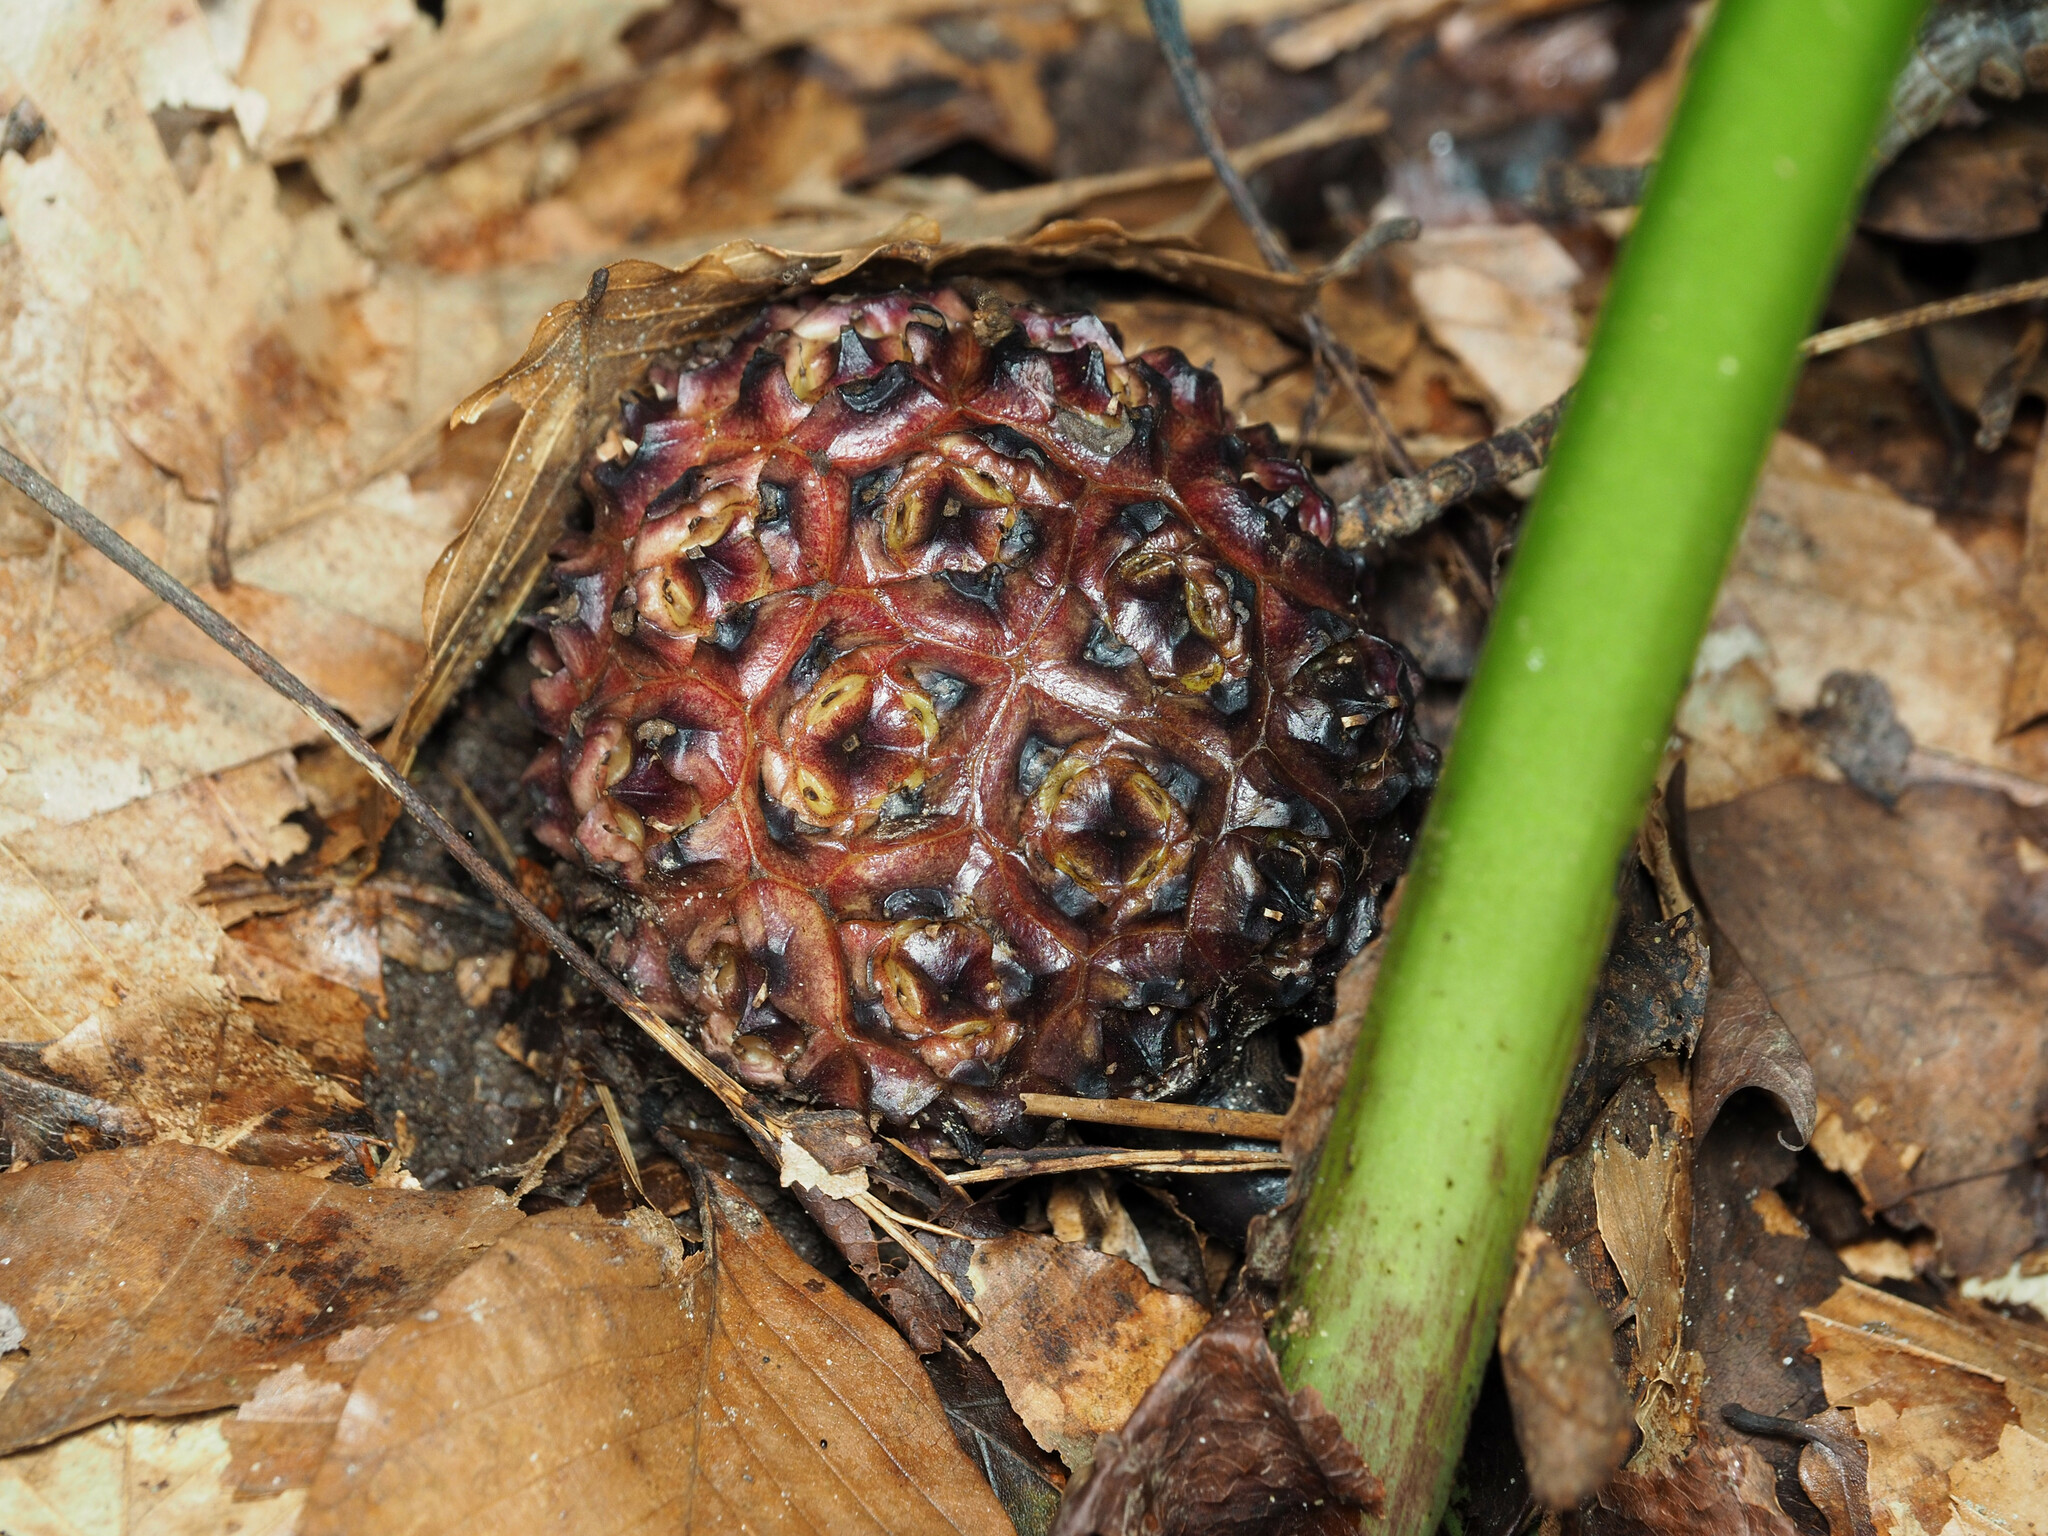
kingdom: Plantae
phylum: Tracheophyta
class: Liliopsida
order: Alismatales
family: Araceae
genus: Symplocarpus
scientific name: Symplocarpus foetidus
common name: Eastern skunk cabbage
